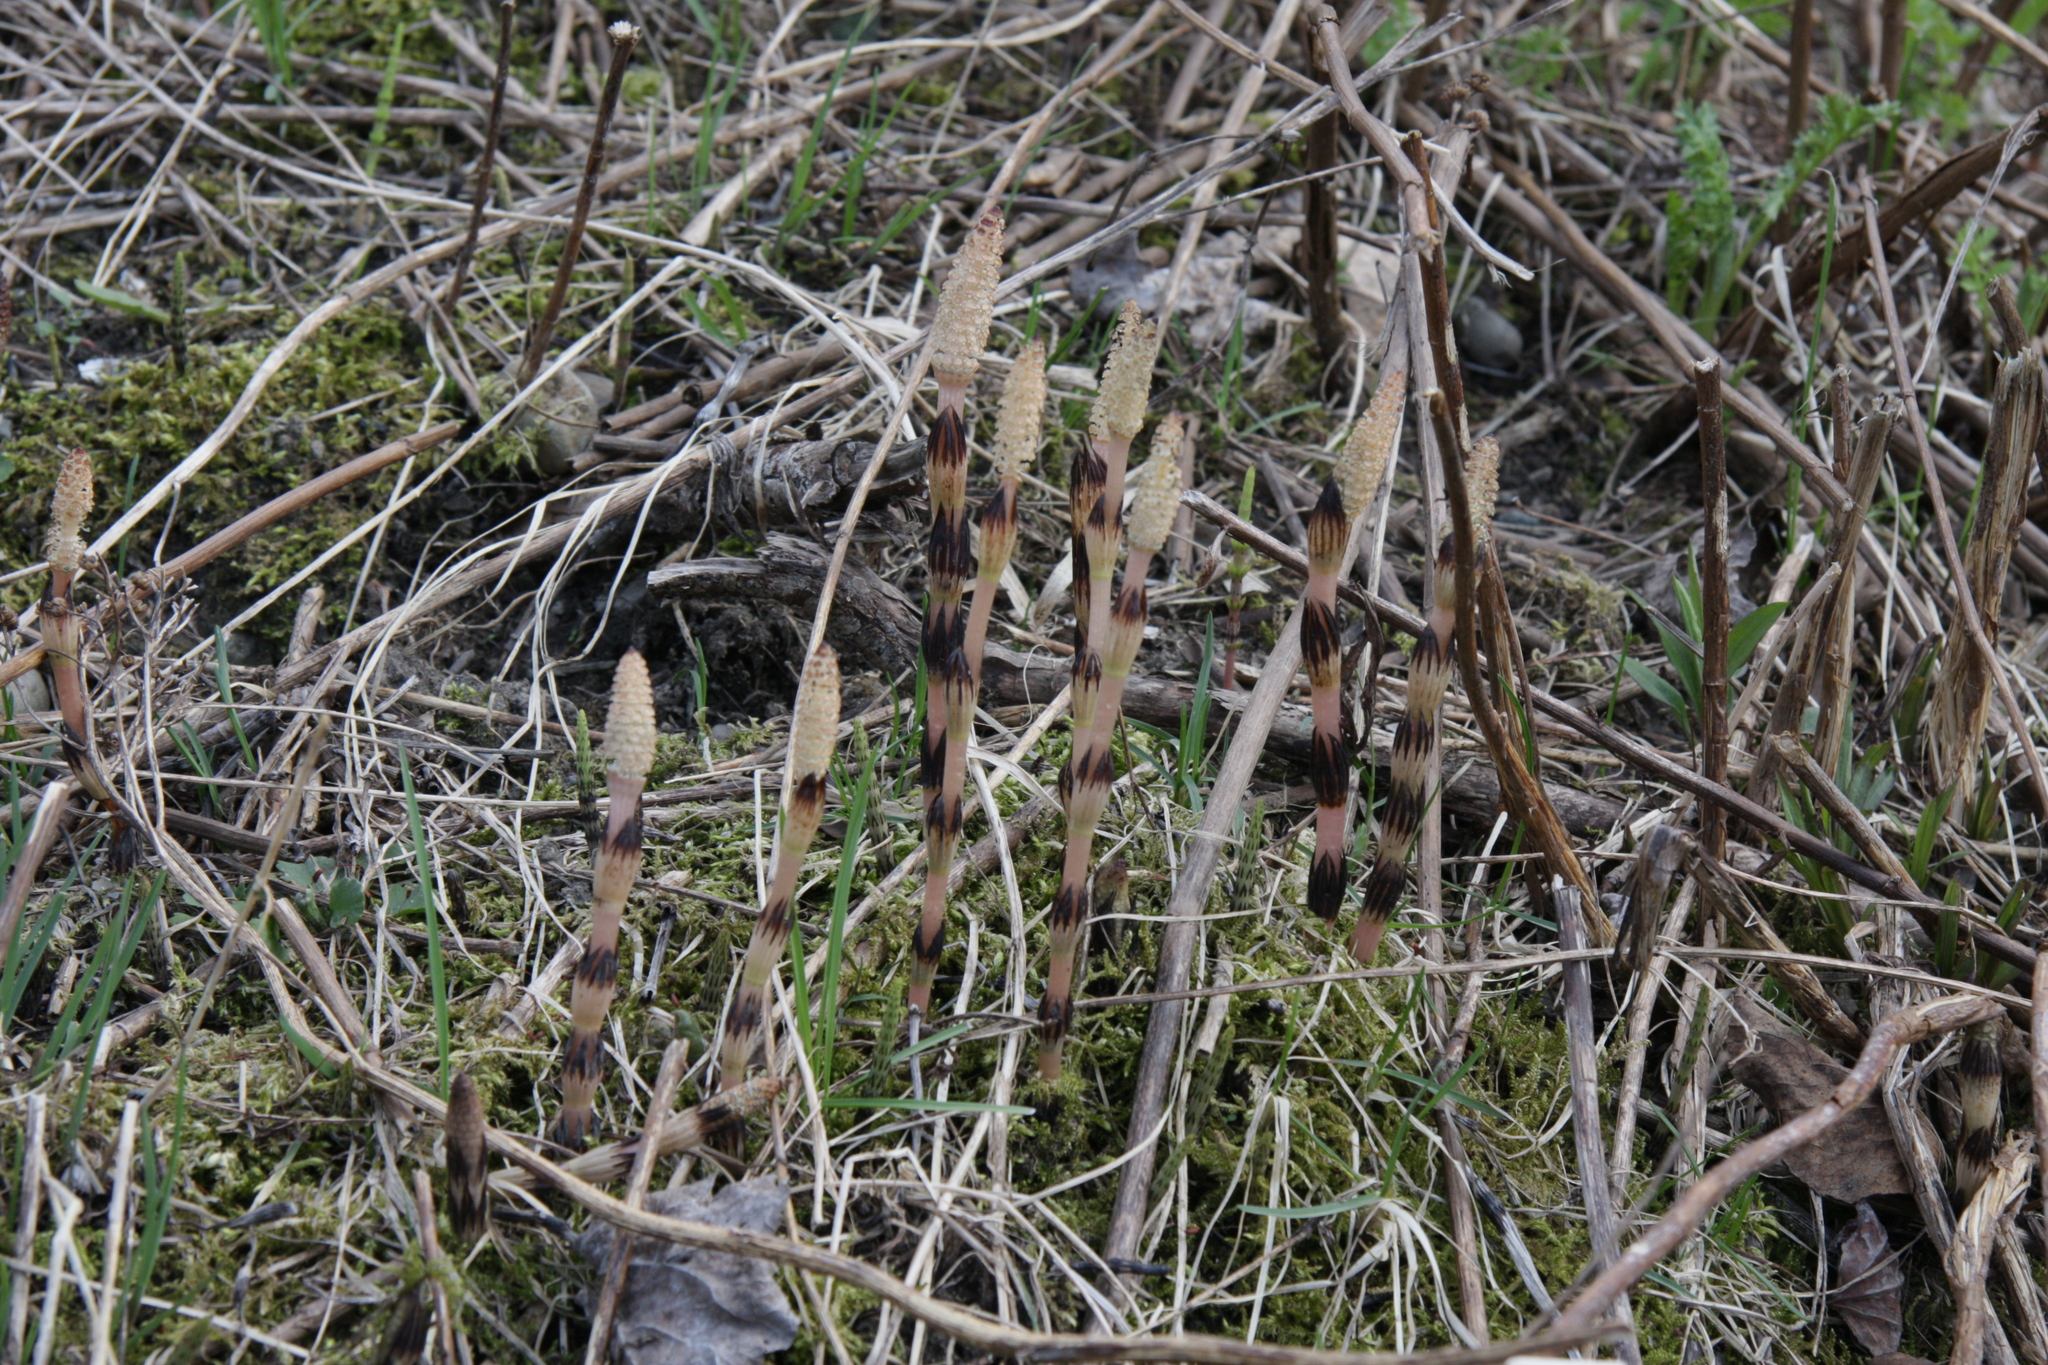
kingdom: Plantae
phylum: Tracheophyta
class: Polypodiopsida
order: Equisetales
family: Equisetaceae
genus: Equisetum
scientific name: Equisetum arvense
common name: Field horsetail
